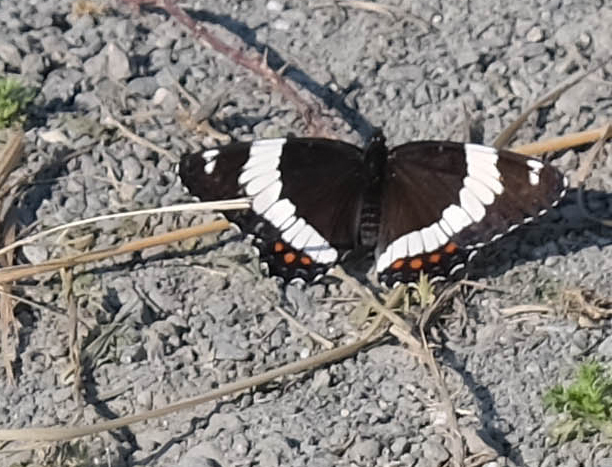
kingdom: Animalia
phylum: Arthropoda
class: Insecta
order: Lepidoptera
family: Nymphalidae
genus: Limenitis
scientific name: Limenitis arthemis
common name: Red-spotted admiral
